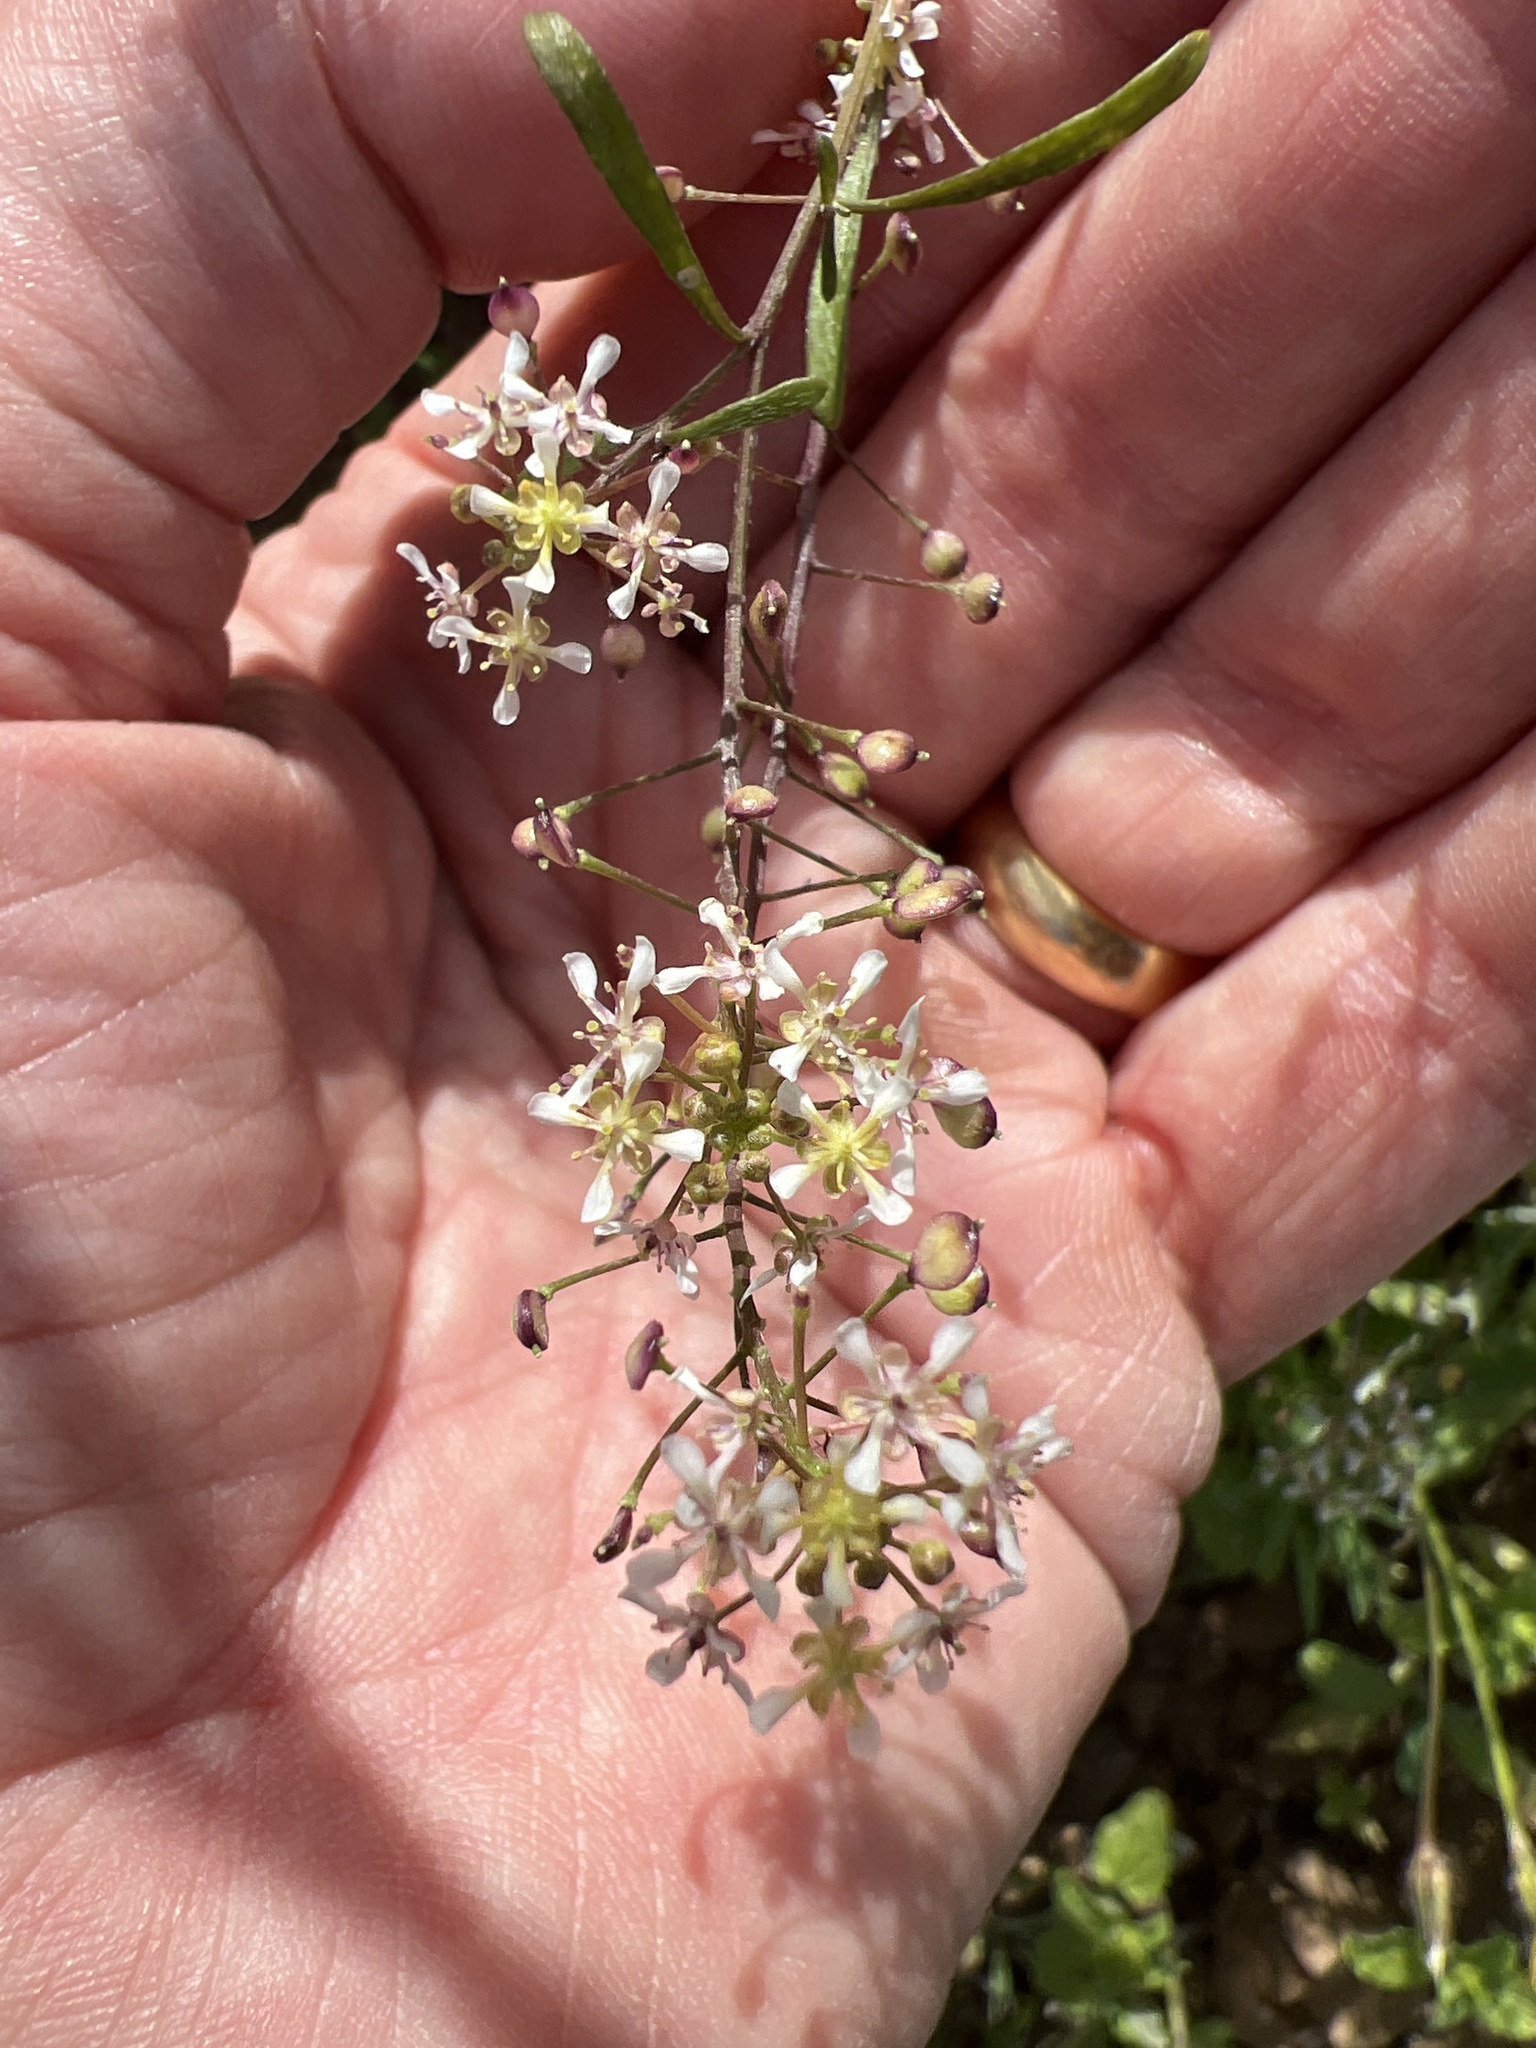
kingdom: Plantae
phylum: Tracheophyta
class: Magnoliopsida
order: Brassicales
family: Brassicaceae
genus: Lobularia
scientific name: Lobularia canariensis
